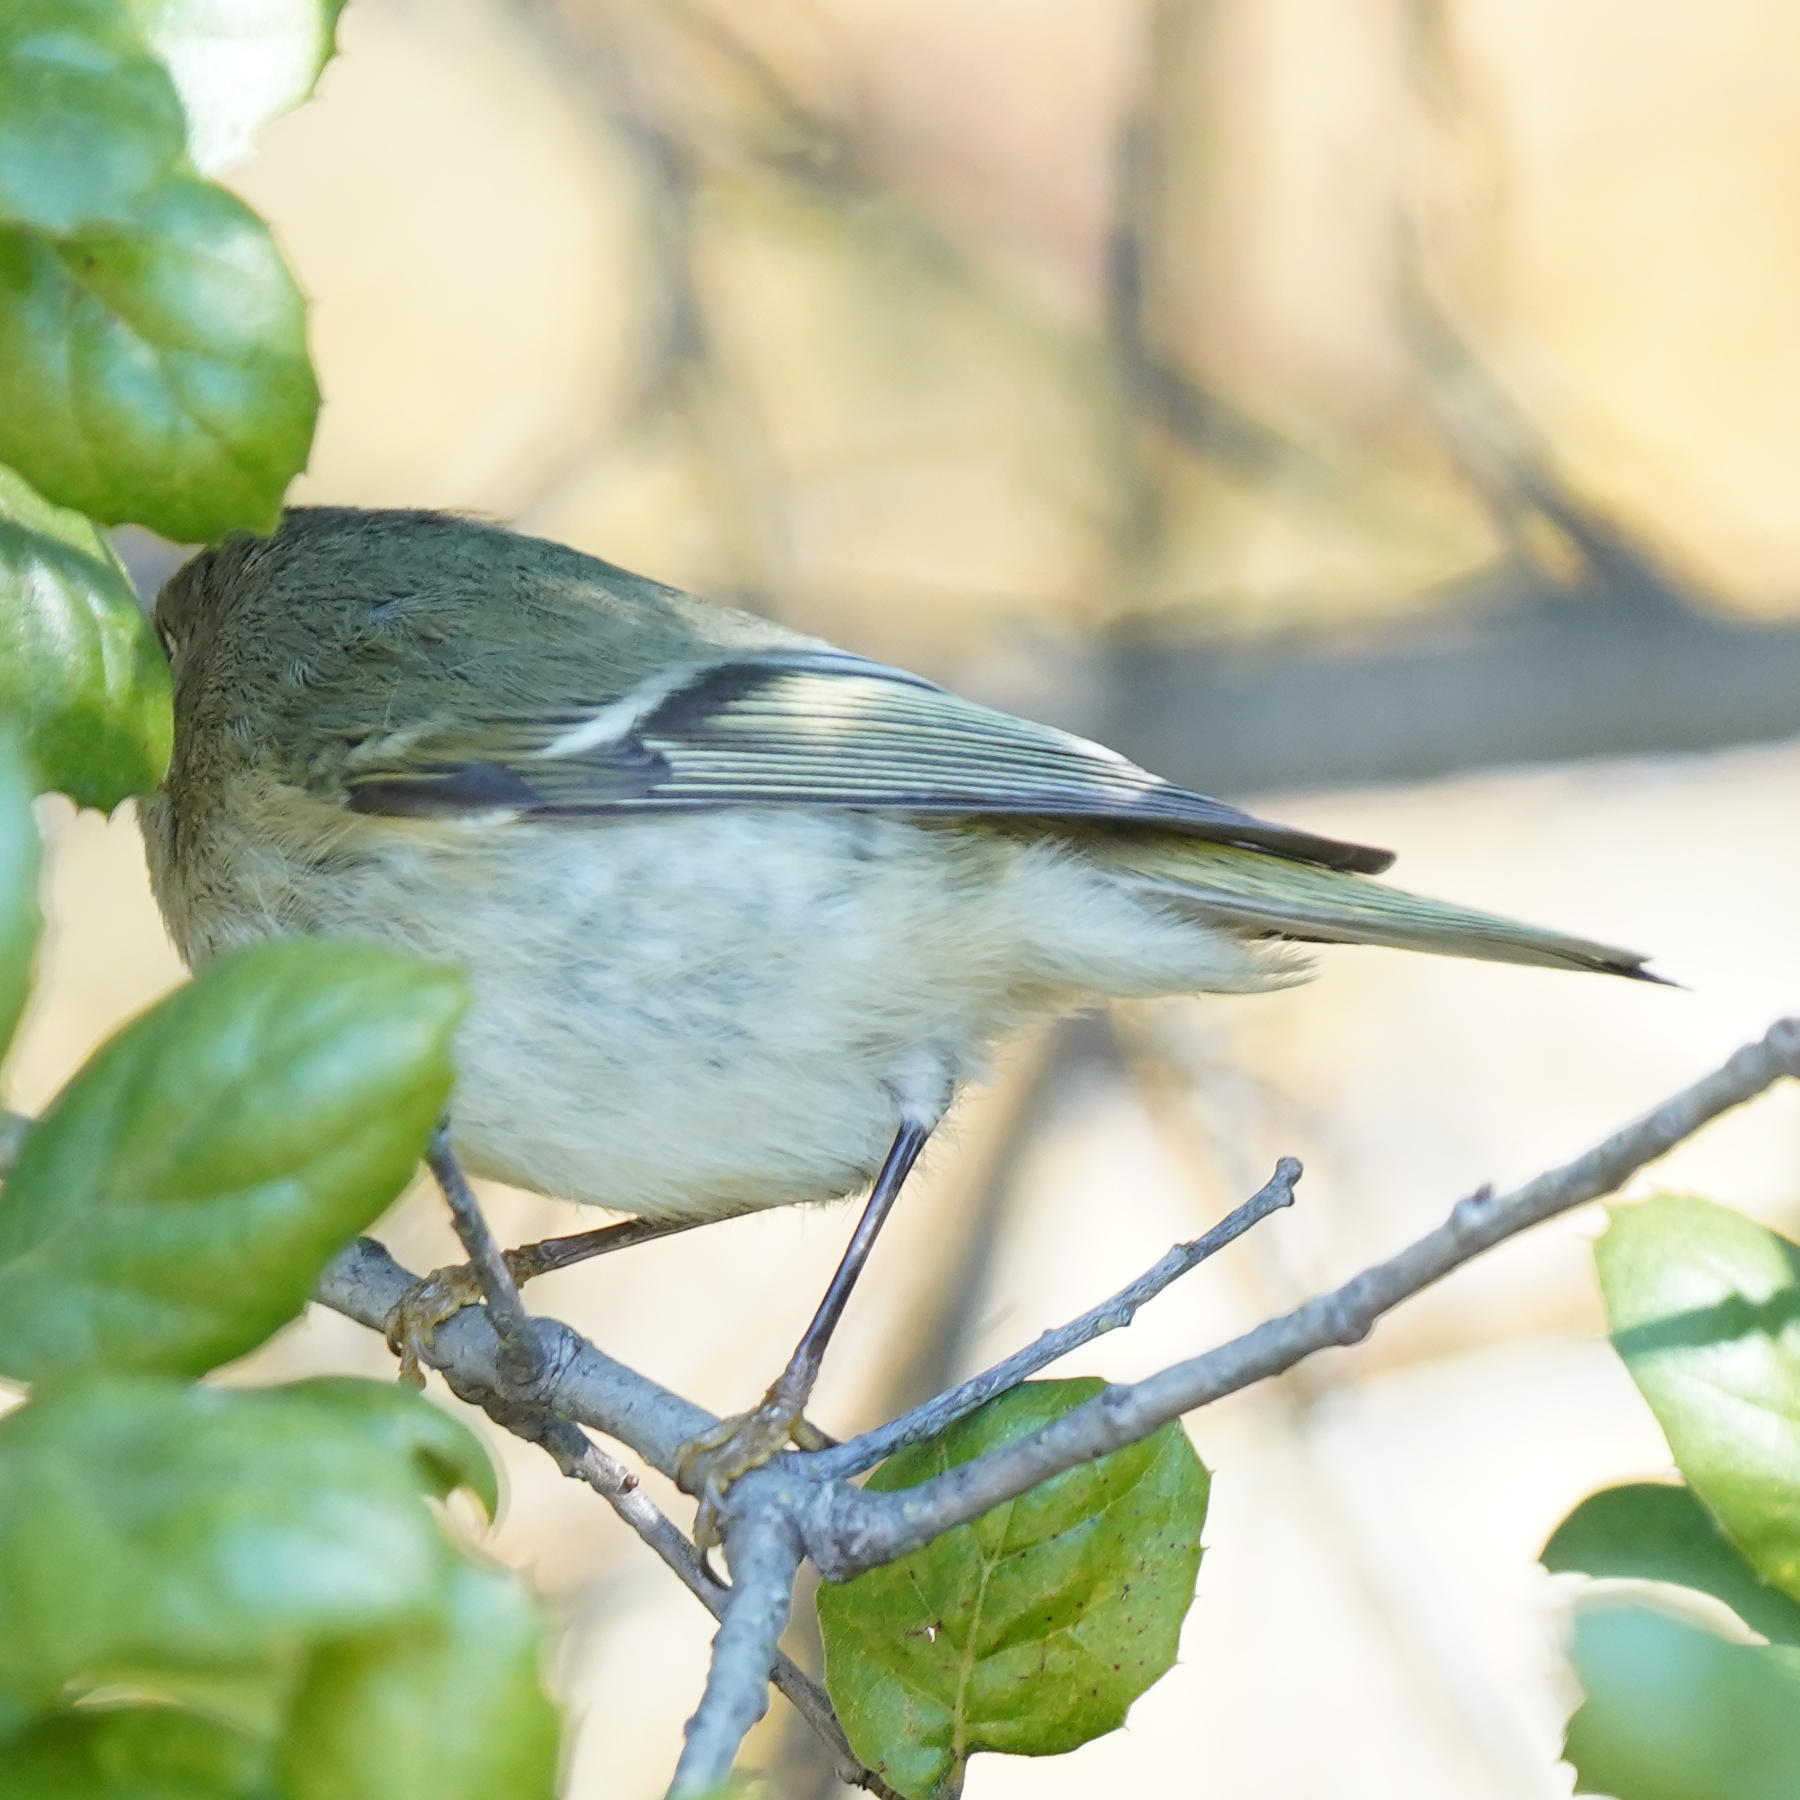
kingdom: Animalia
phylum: Chordata
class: Aves
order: Passeriformes
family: Regulidae
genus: Regulus
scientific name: Regulus calendula
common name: Ruby-crowned kinglet
